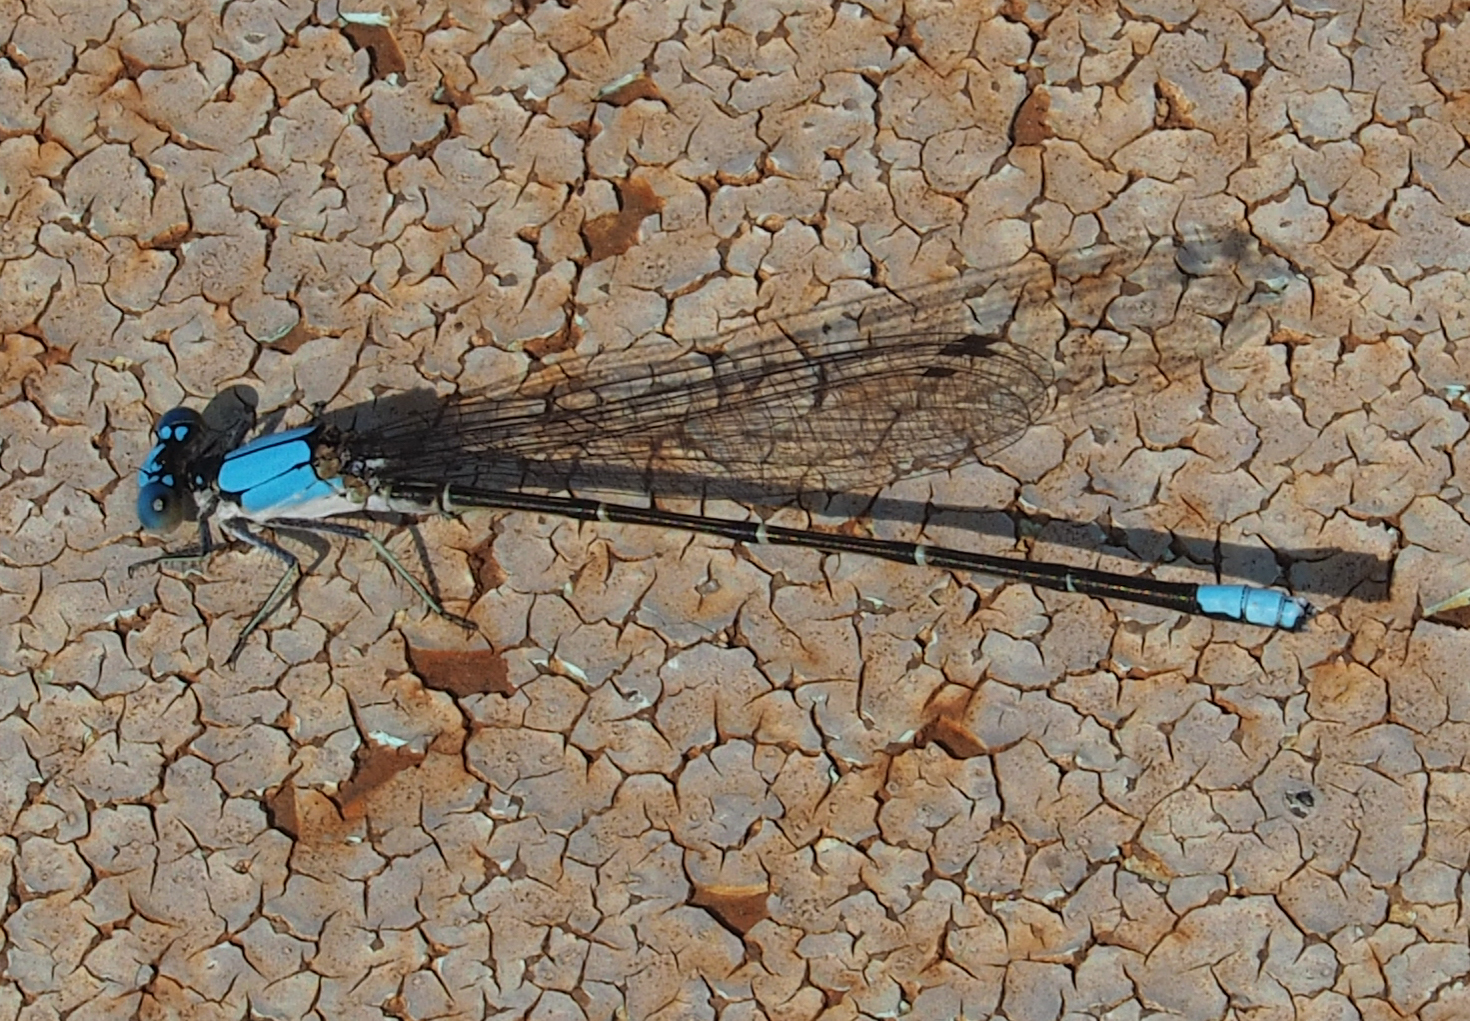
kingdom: Animalia
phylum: Arthropoda
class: Insecta
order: Odonata
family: Coenagrionidae
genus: Argia
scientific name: Argia apicalis
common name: Blue-fronted dancer
